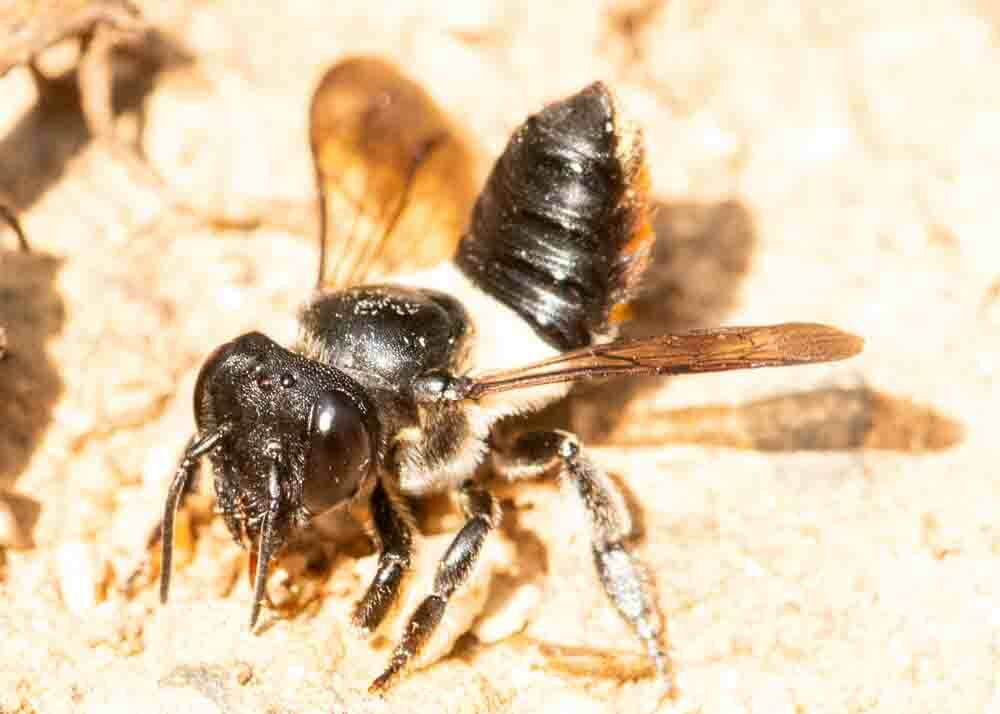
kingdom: Animalia
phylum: Arthropoda
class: Insecta
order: Hymenoptera
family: Megachilidae
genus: Megachile
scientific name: Megachile conjuncta
